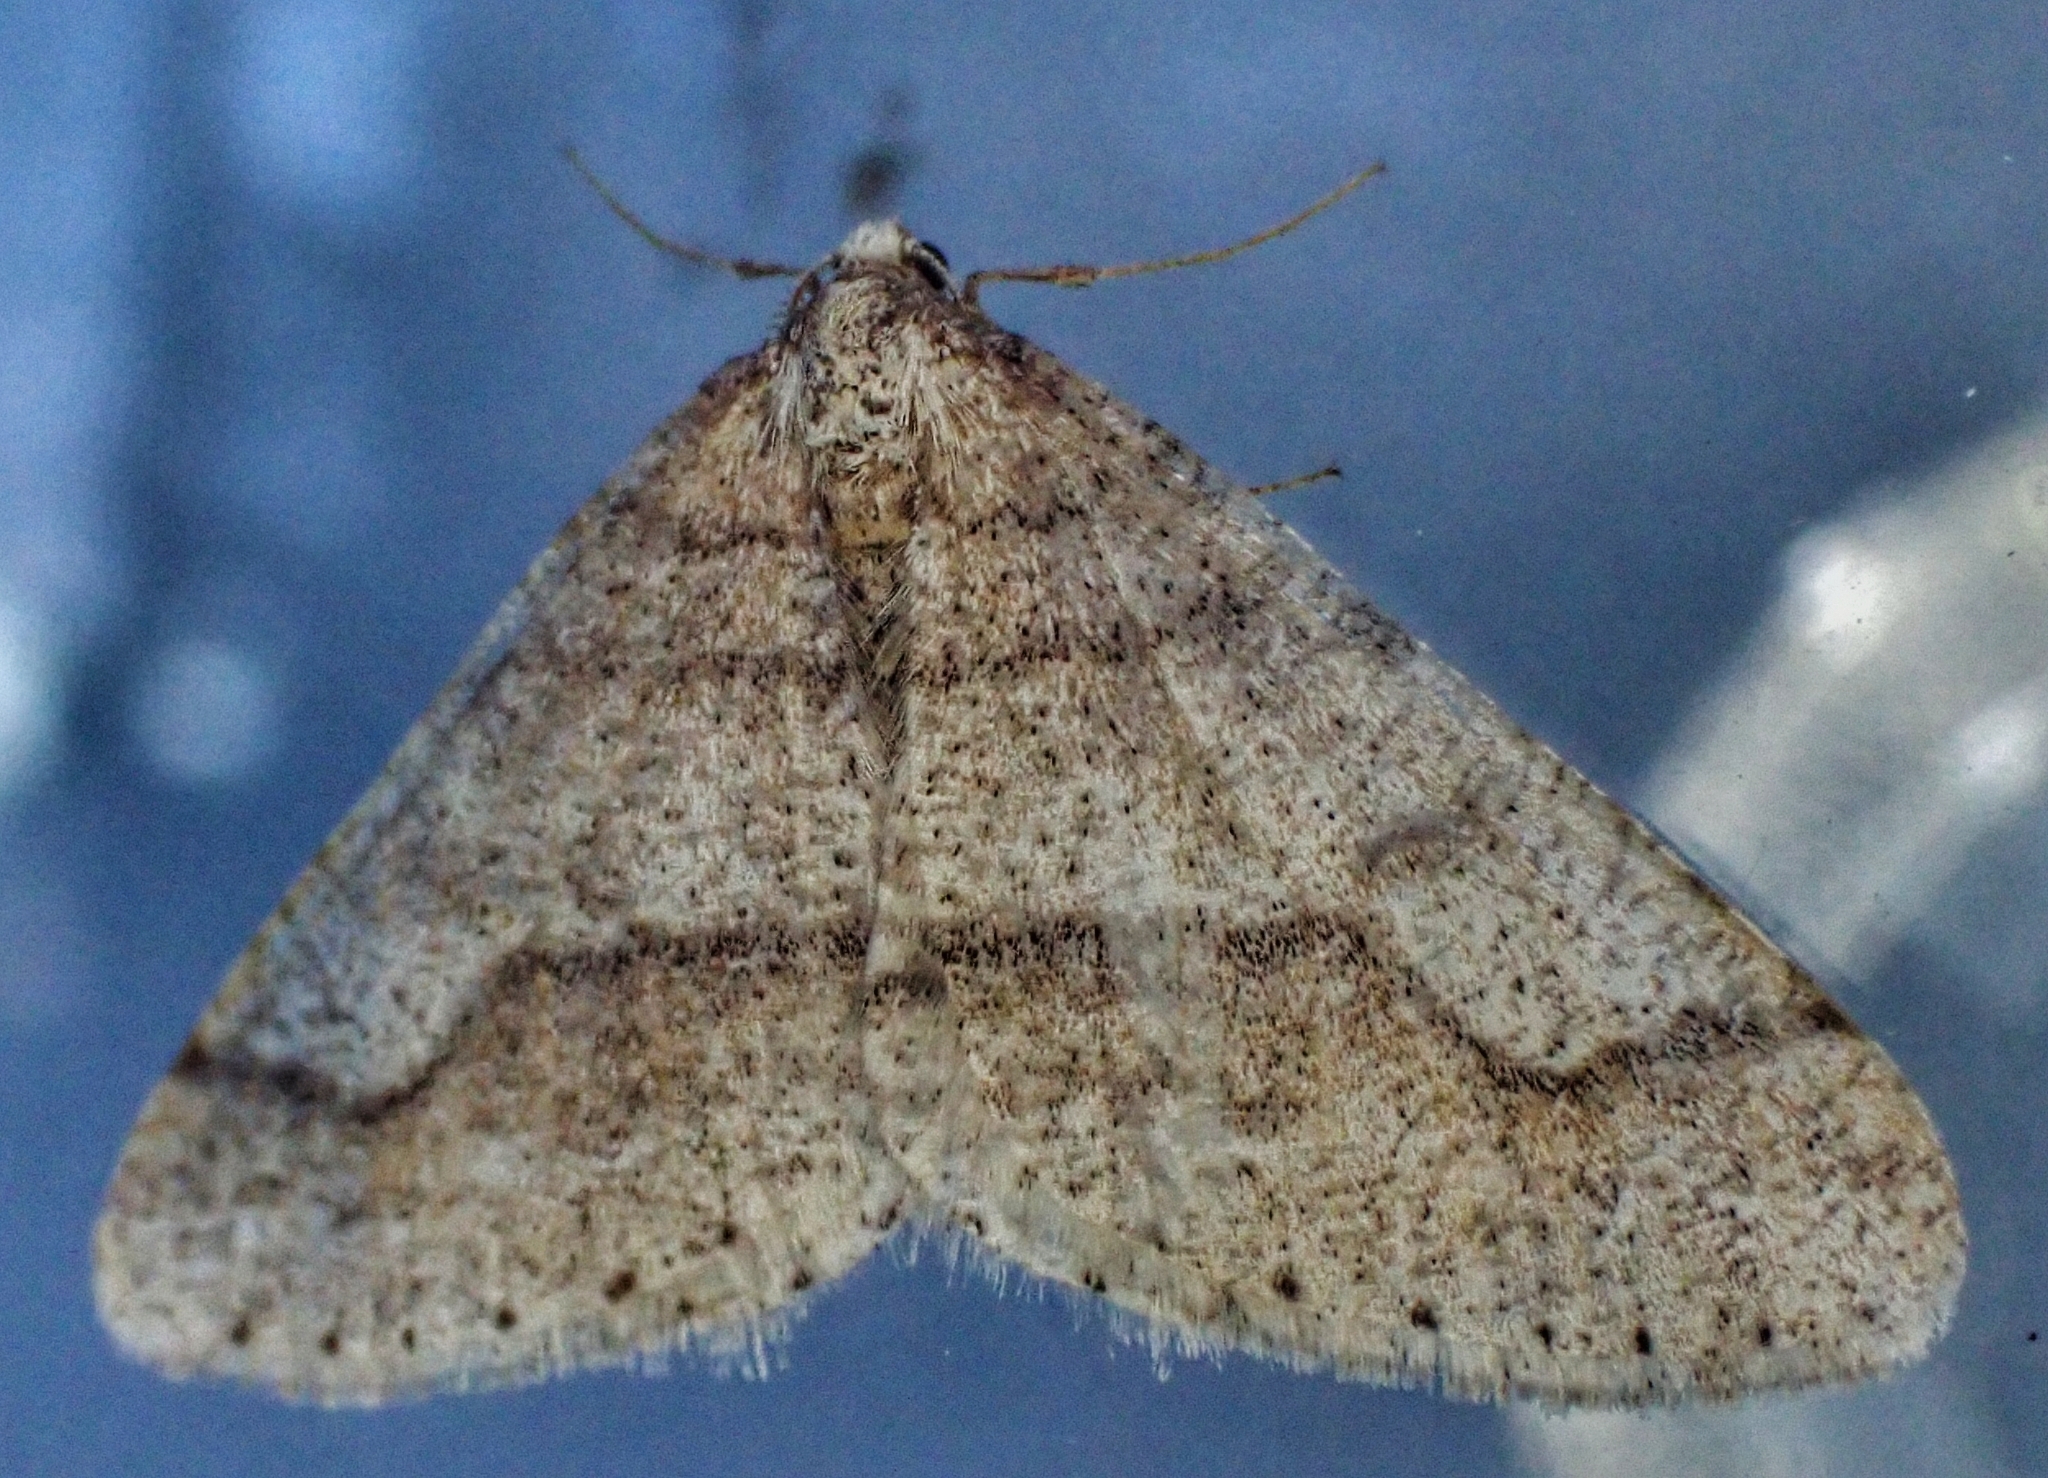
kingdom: Animalia
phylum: Arthropoda
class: Insecta
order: Lepidoptera
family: Geometridae
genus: Agriopis
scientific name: Agriopis marginaria
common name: Dotted border
